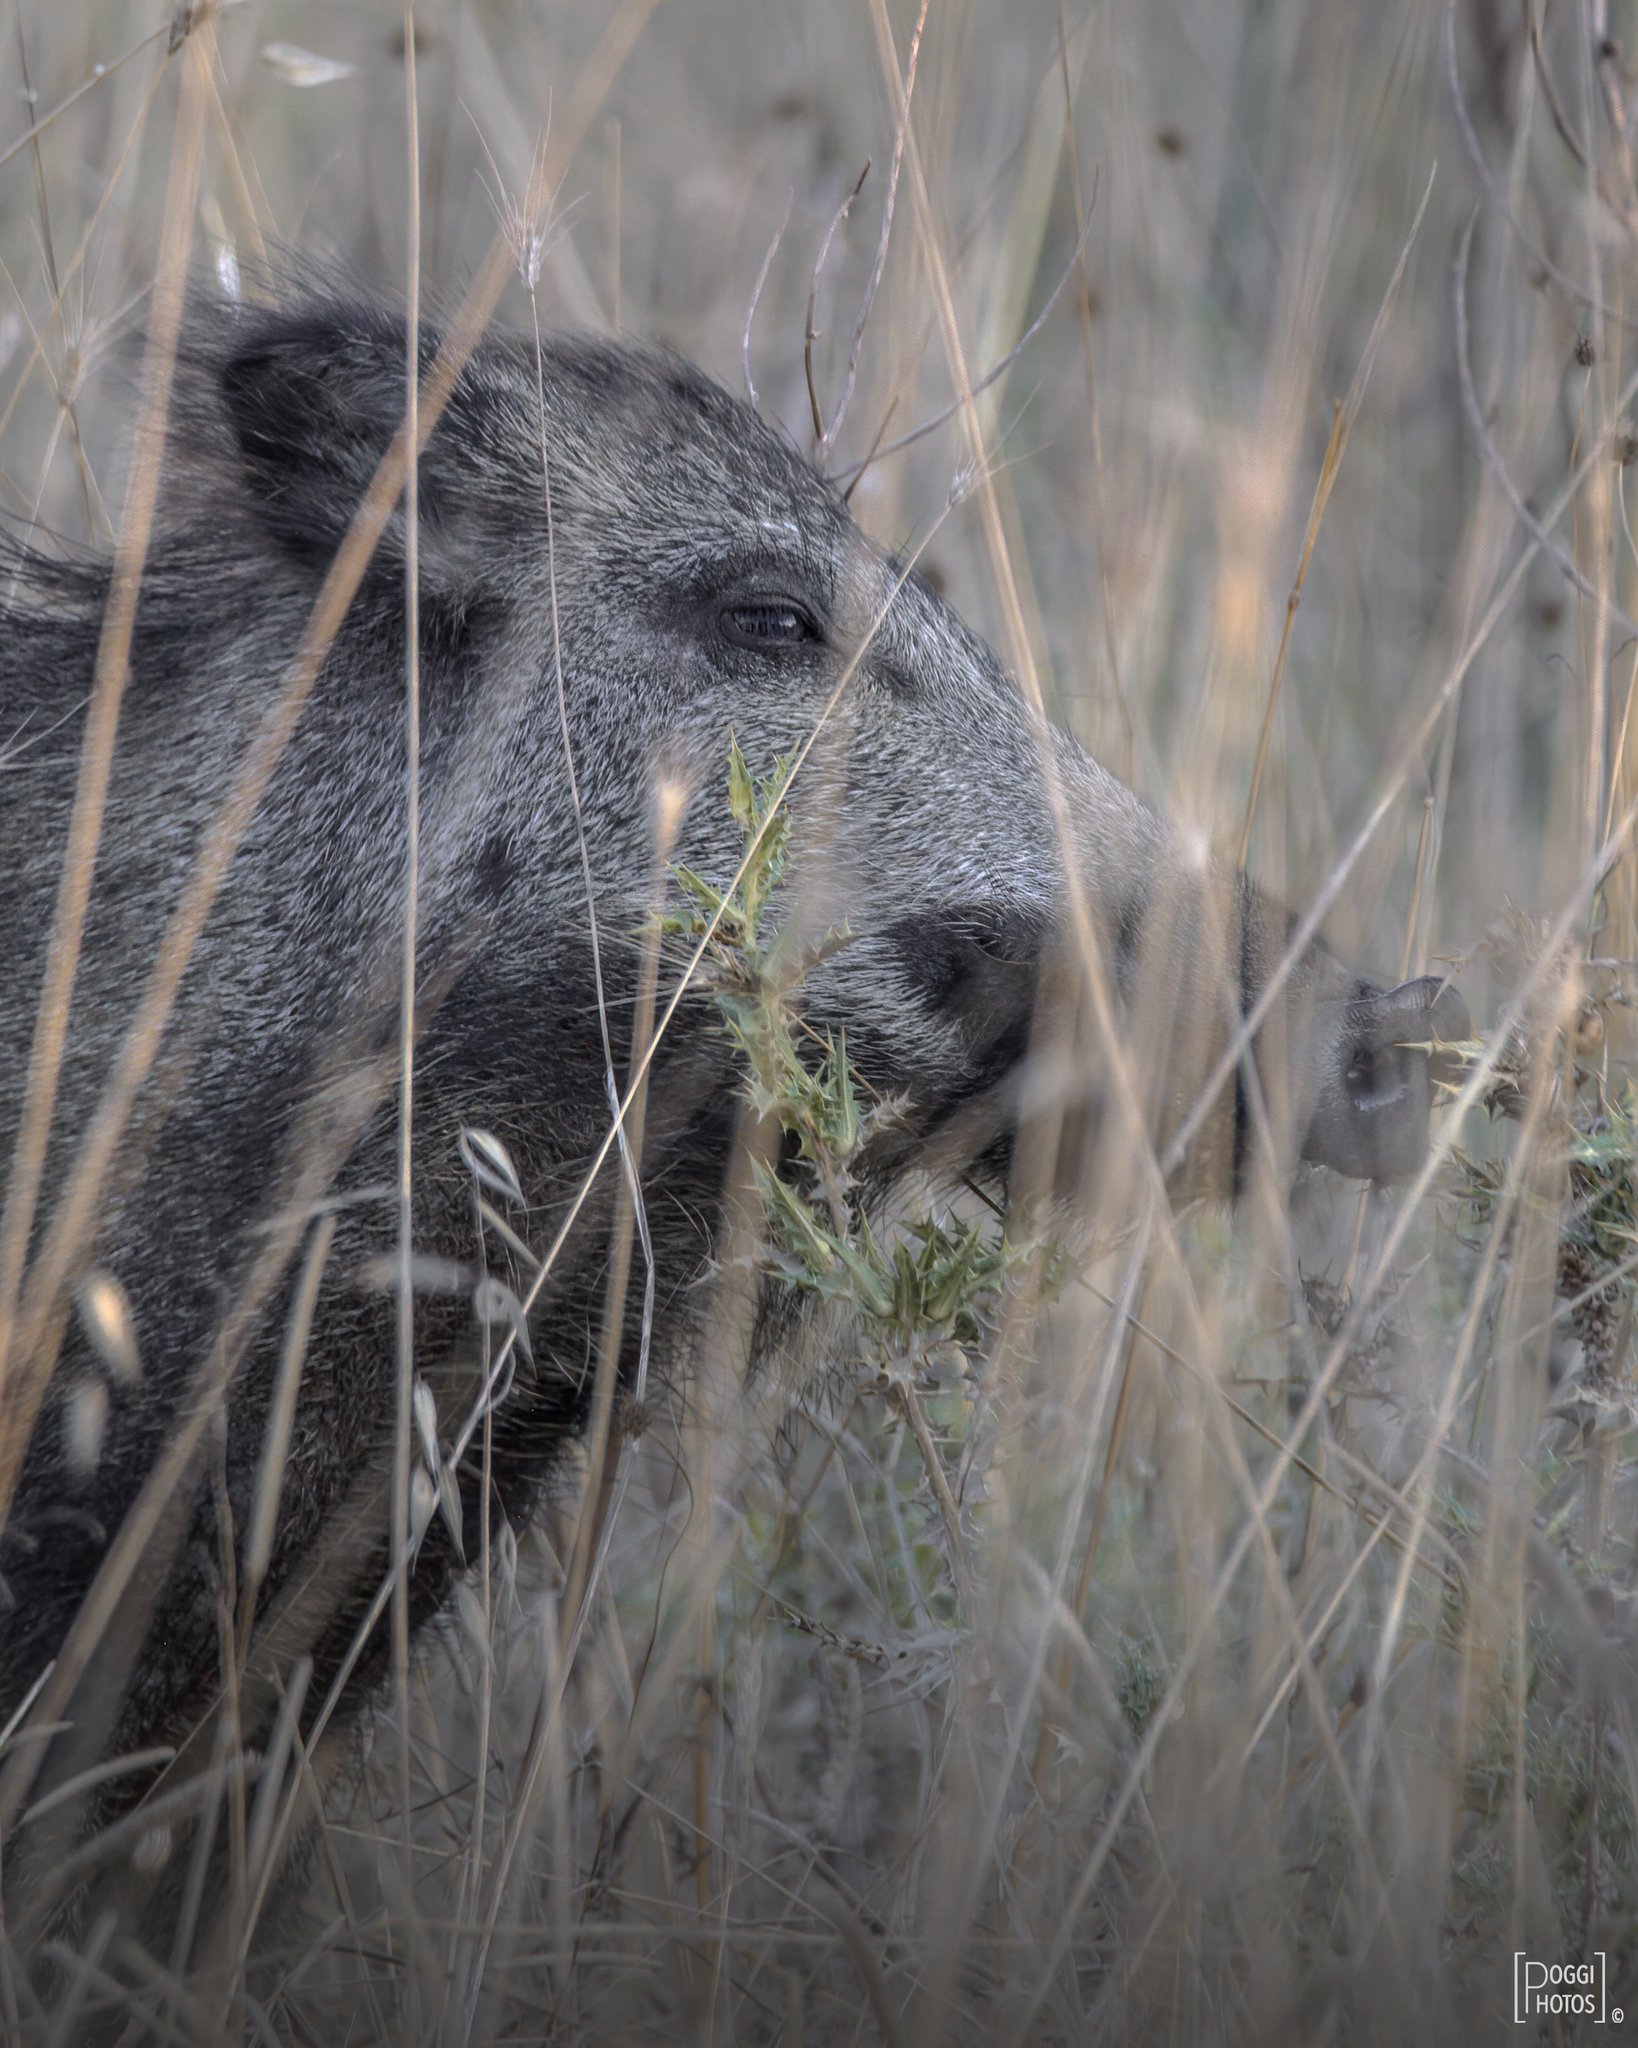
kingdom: Animalia
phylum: Chordata
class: Mammalia
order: Artiodactyla
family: Suidae
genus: Sus
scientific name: Sus scrofa
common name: Wild boar
